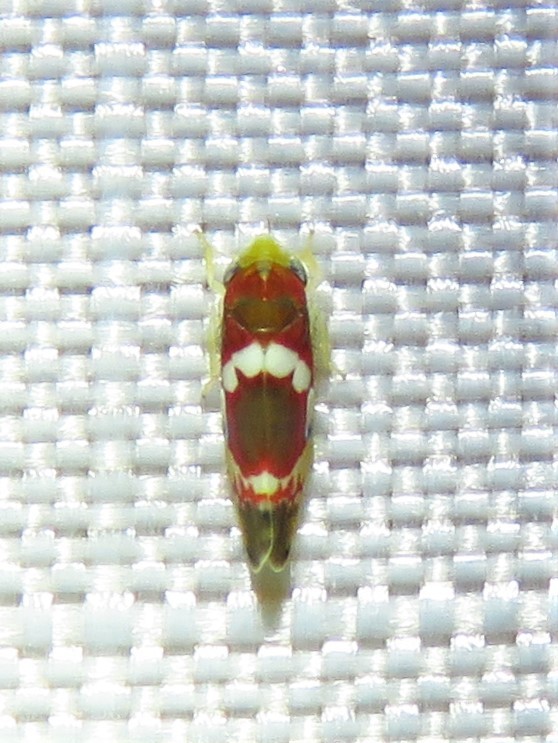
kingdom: Animalia
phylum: Arthropoda
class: Insecta
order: Hemiptera
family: Cicadellidae
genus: Erythroneura
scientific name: Erythroneura vitis
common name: Grapevine leafhopper
